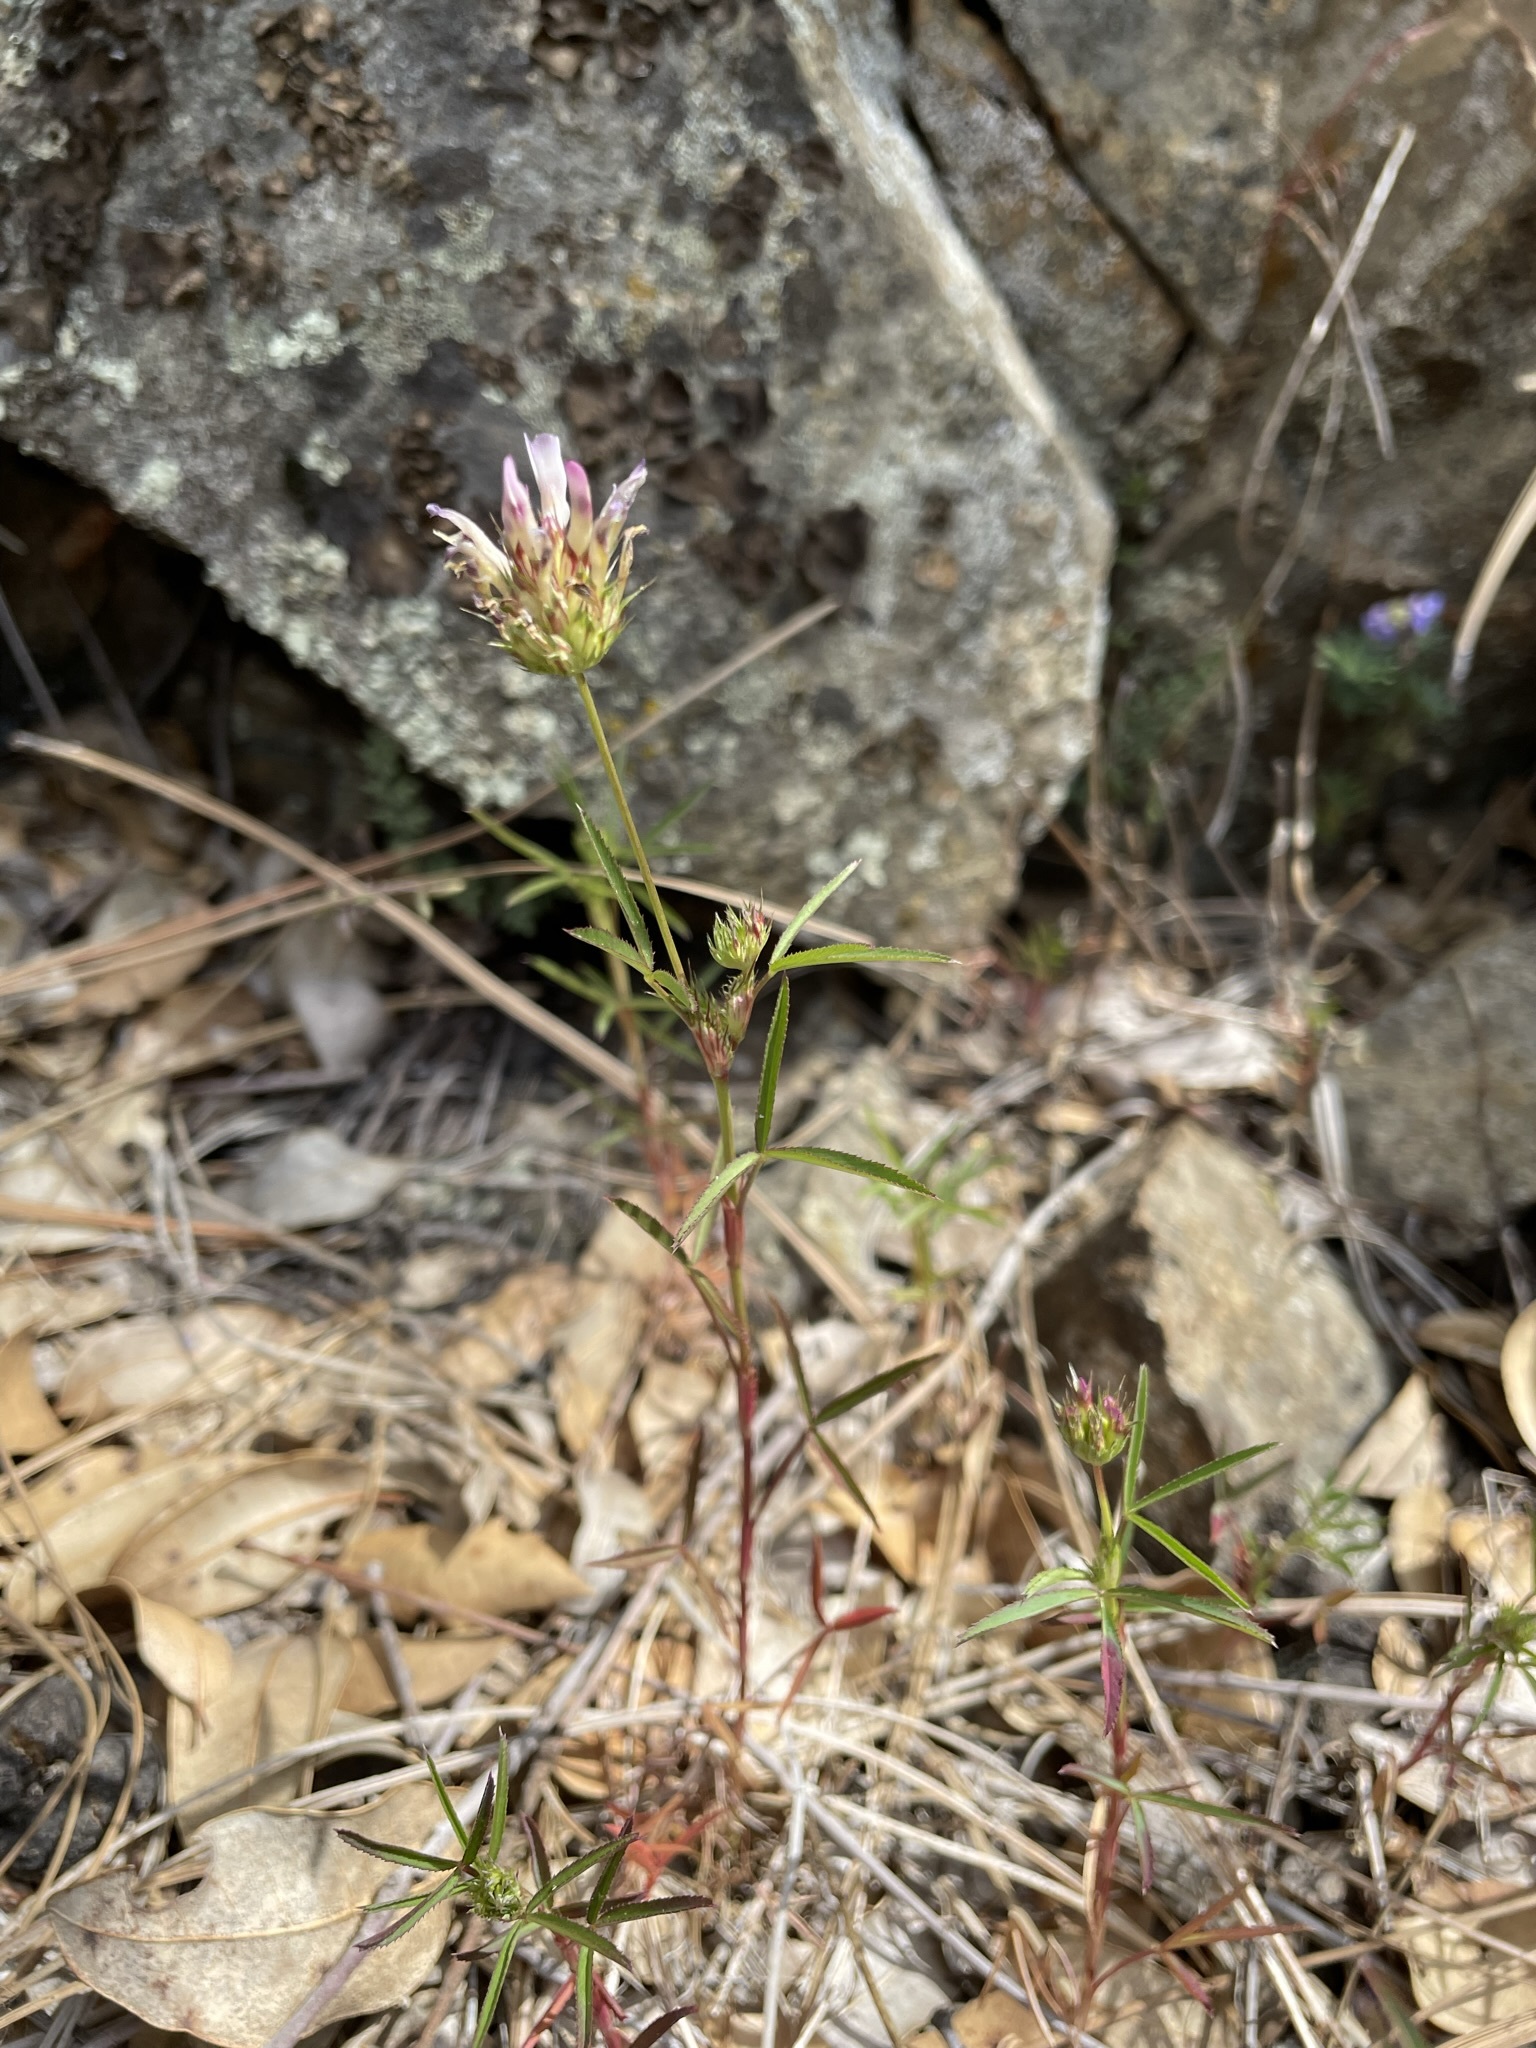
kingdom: Plantae
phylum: Tracheophyta
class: Magnoliopsida
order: Fabales
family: Fabaceae
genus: Trifolium
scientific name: Trifolium willdenovii
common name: Tomcat clover
